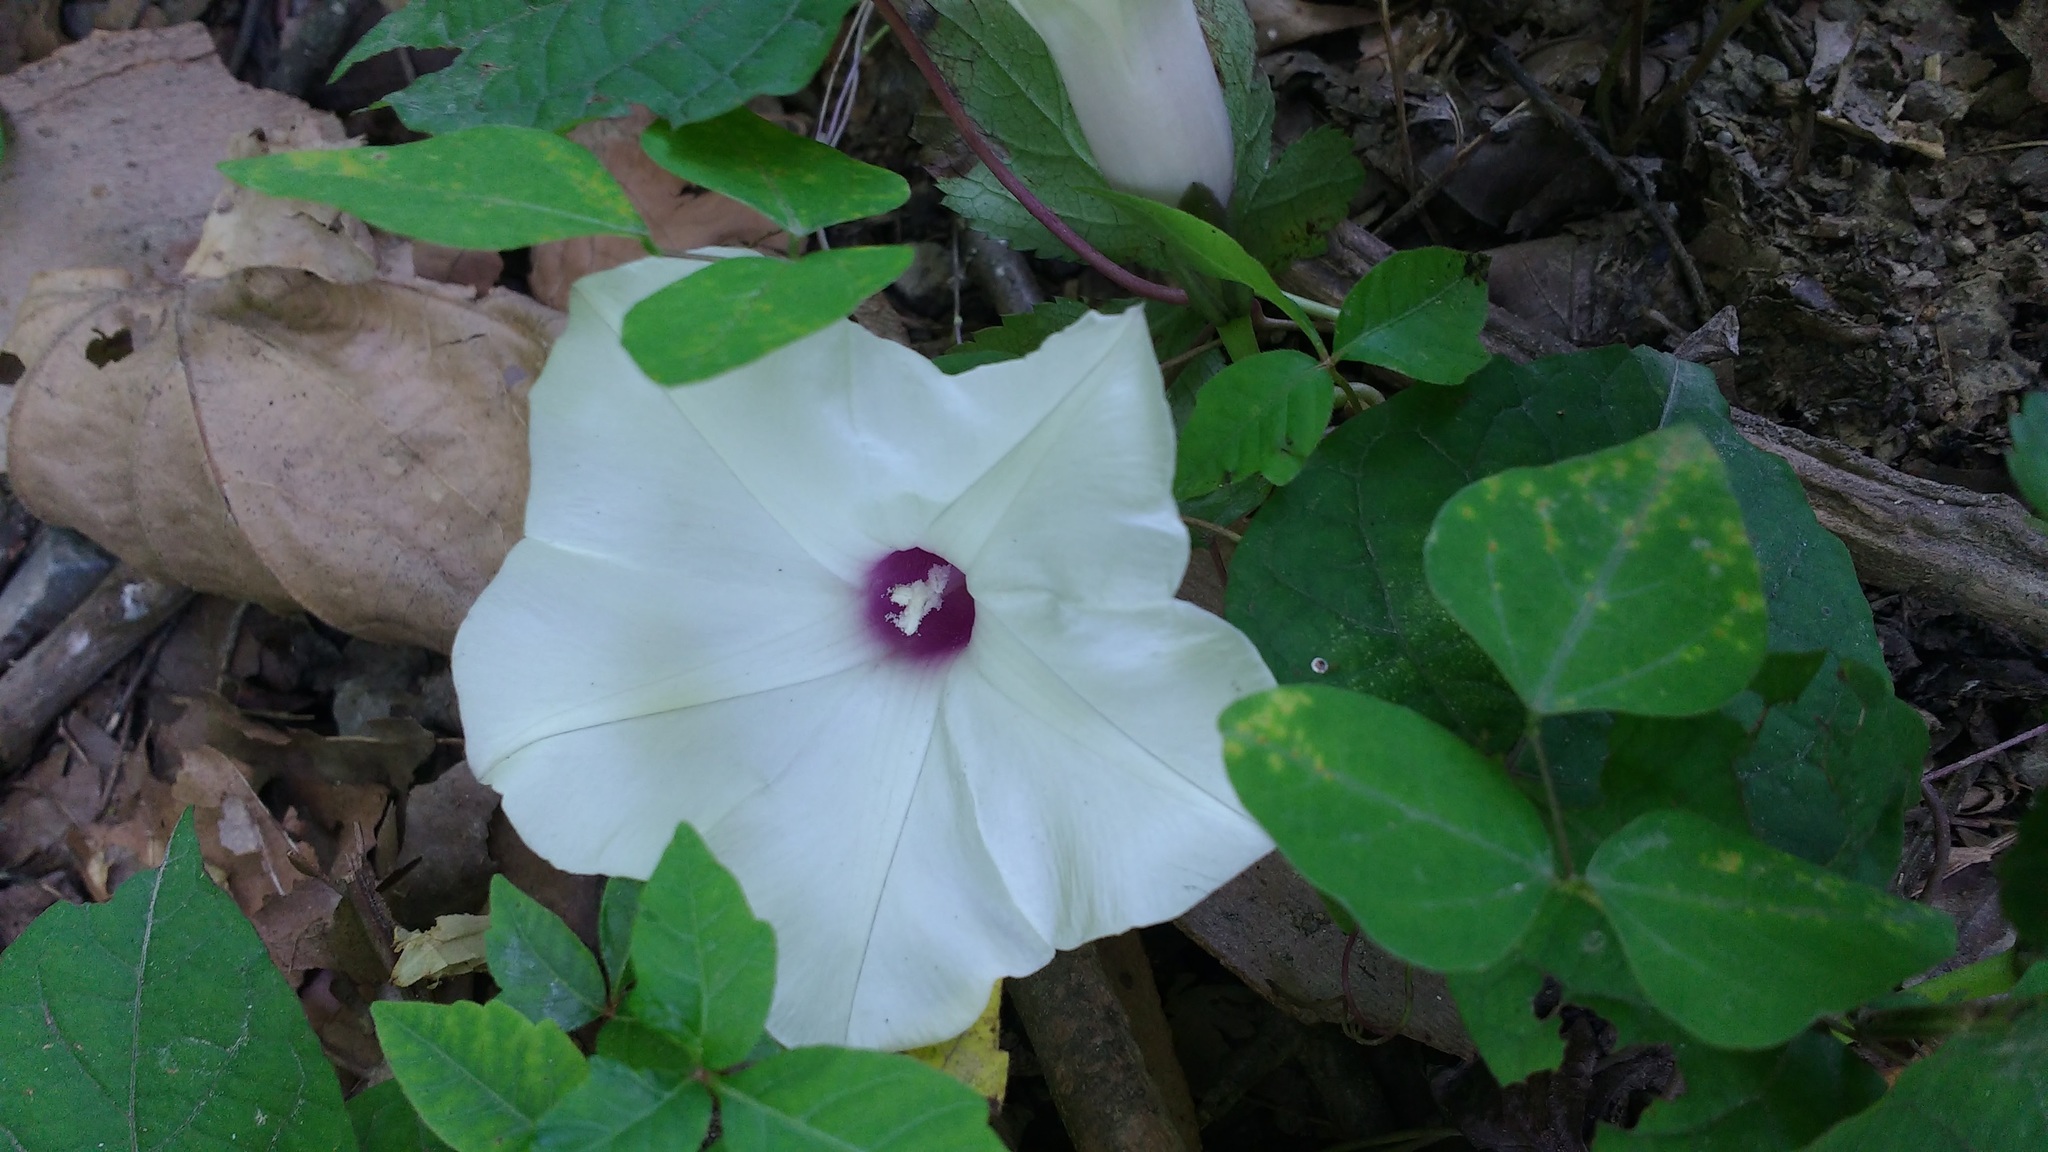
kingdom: Plantae
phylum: Tracheophyta
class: Magnoliopsida
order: Solanales
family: Convolvulaceae
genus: Ipomoea
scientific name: Ipomoea pandurata
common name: Man-of-the-earth
